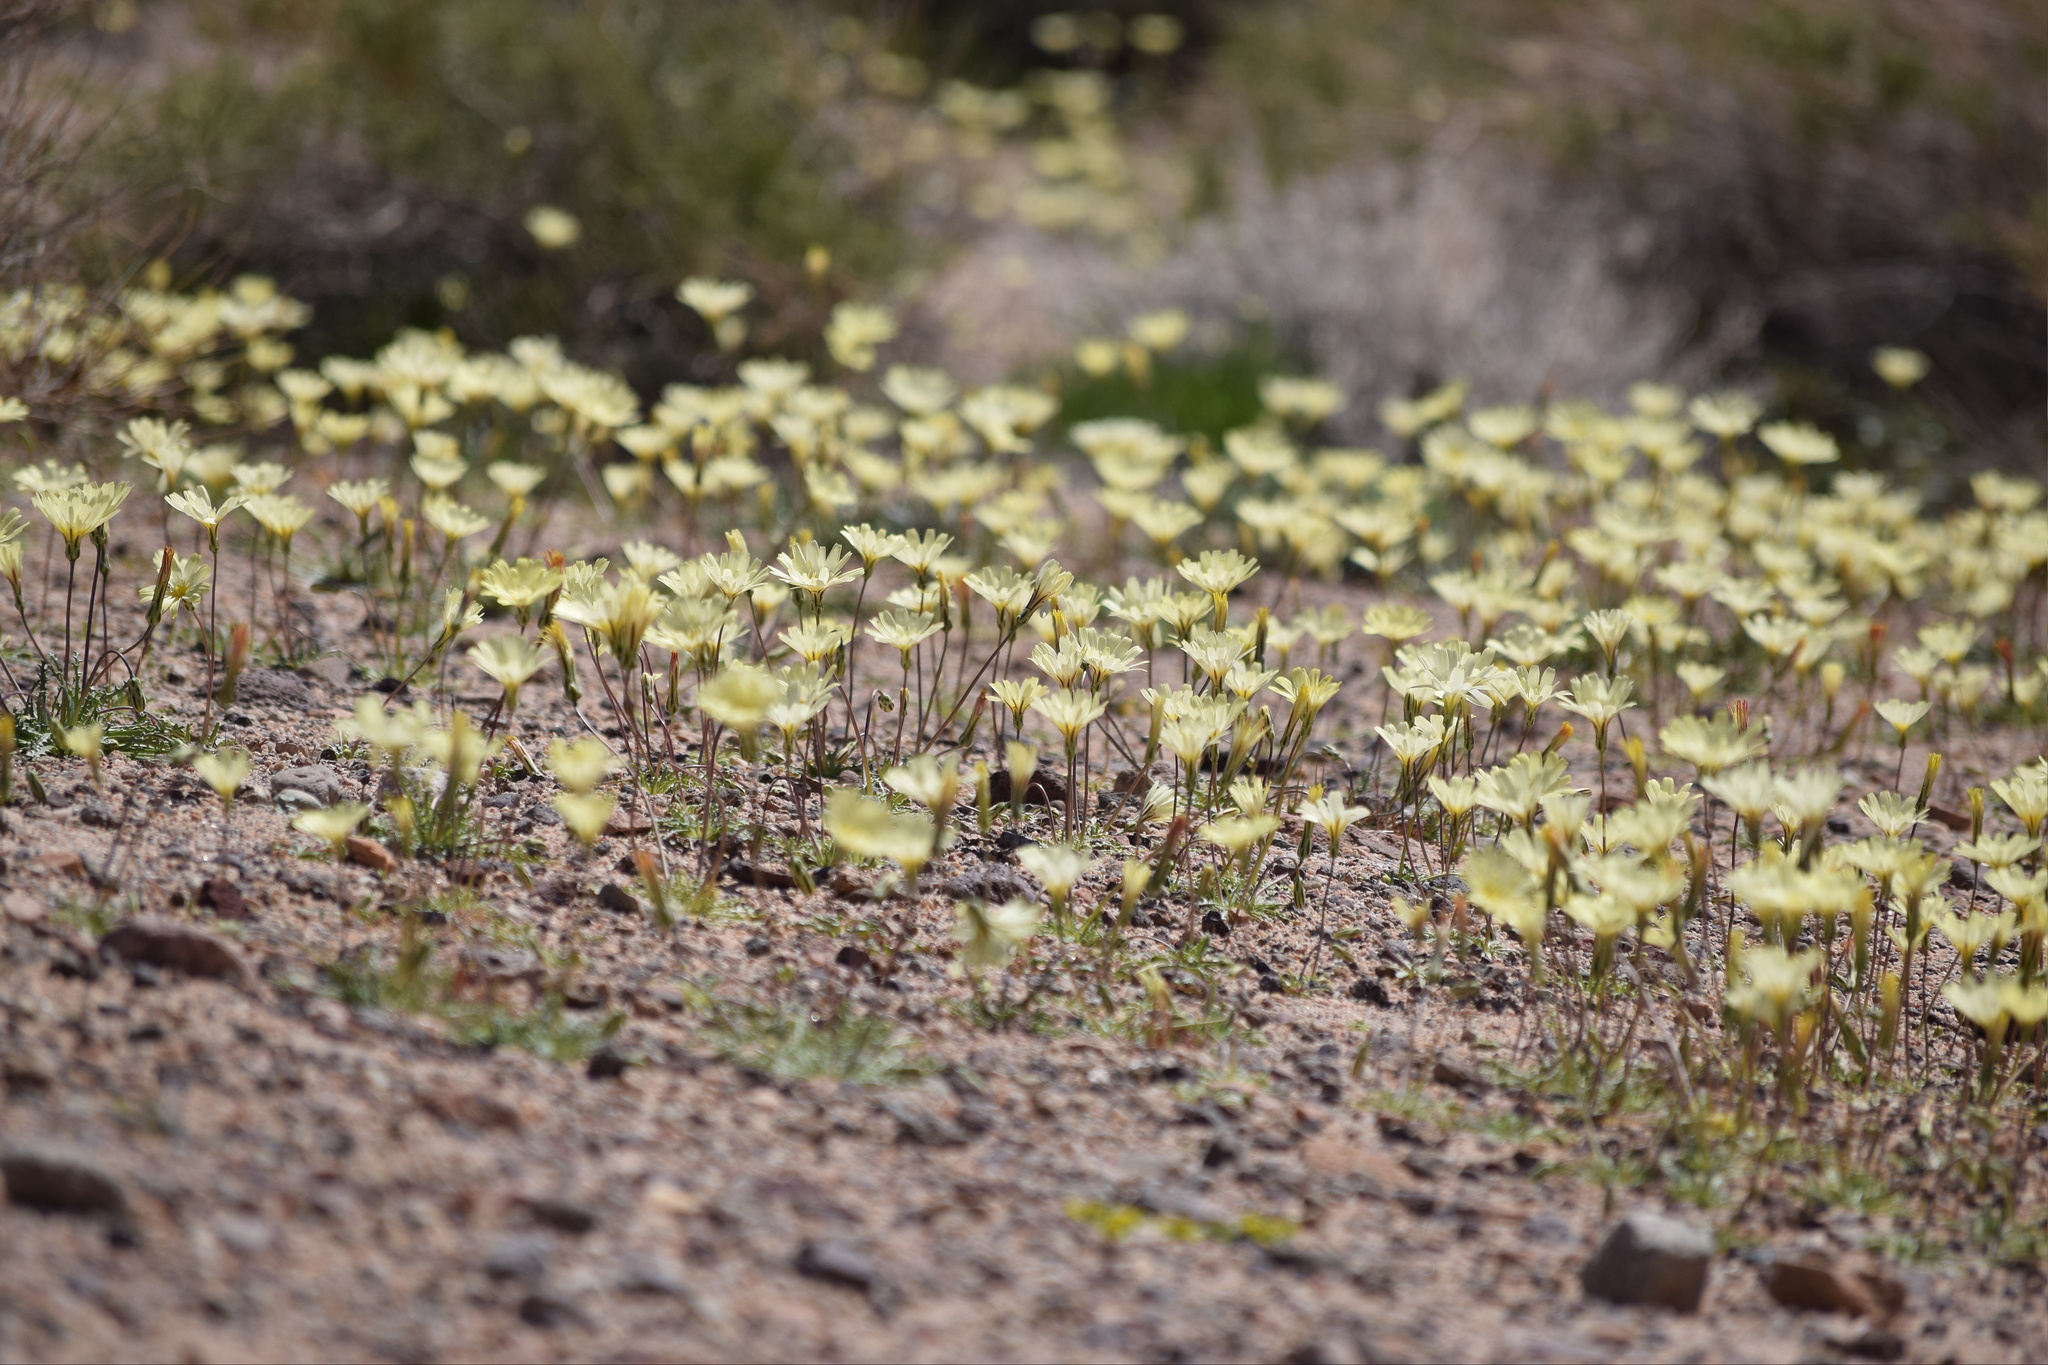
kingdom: Plantae
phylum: Tracheophyta
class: Magnoliopsida
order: Asterales
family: Asteraceae
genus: Anisocoma
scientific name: Anisocoma acaulis
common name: Scalebud
